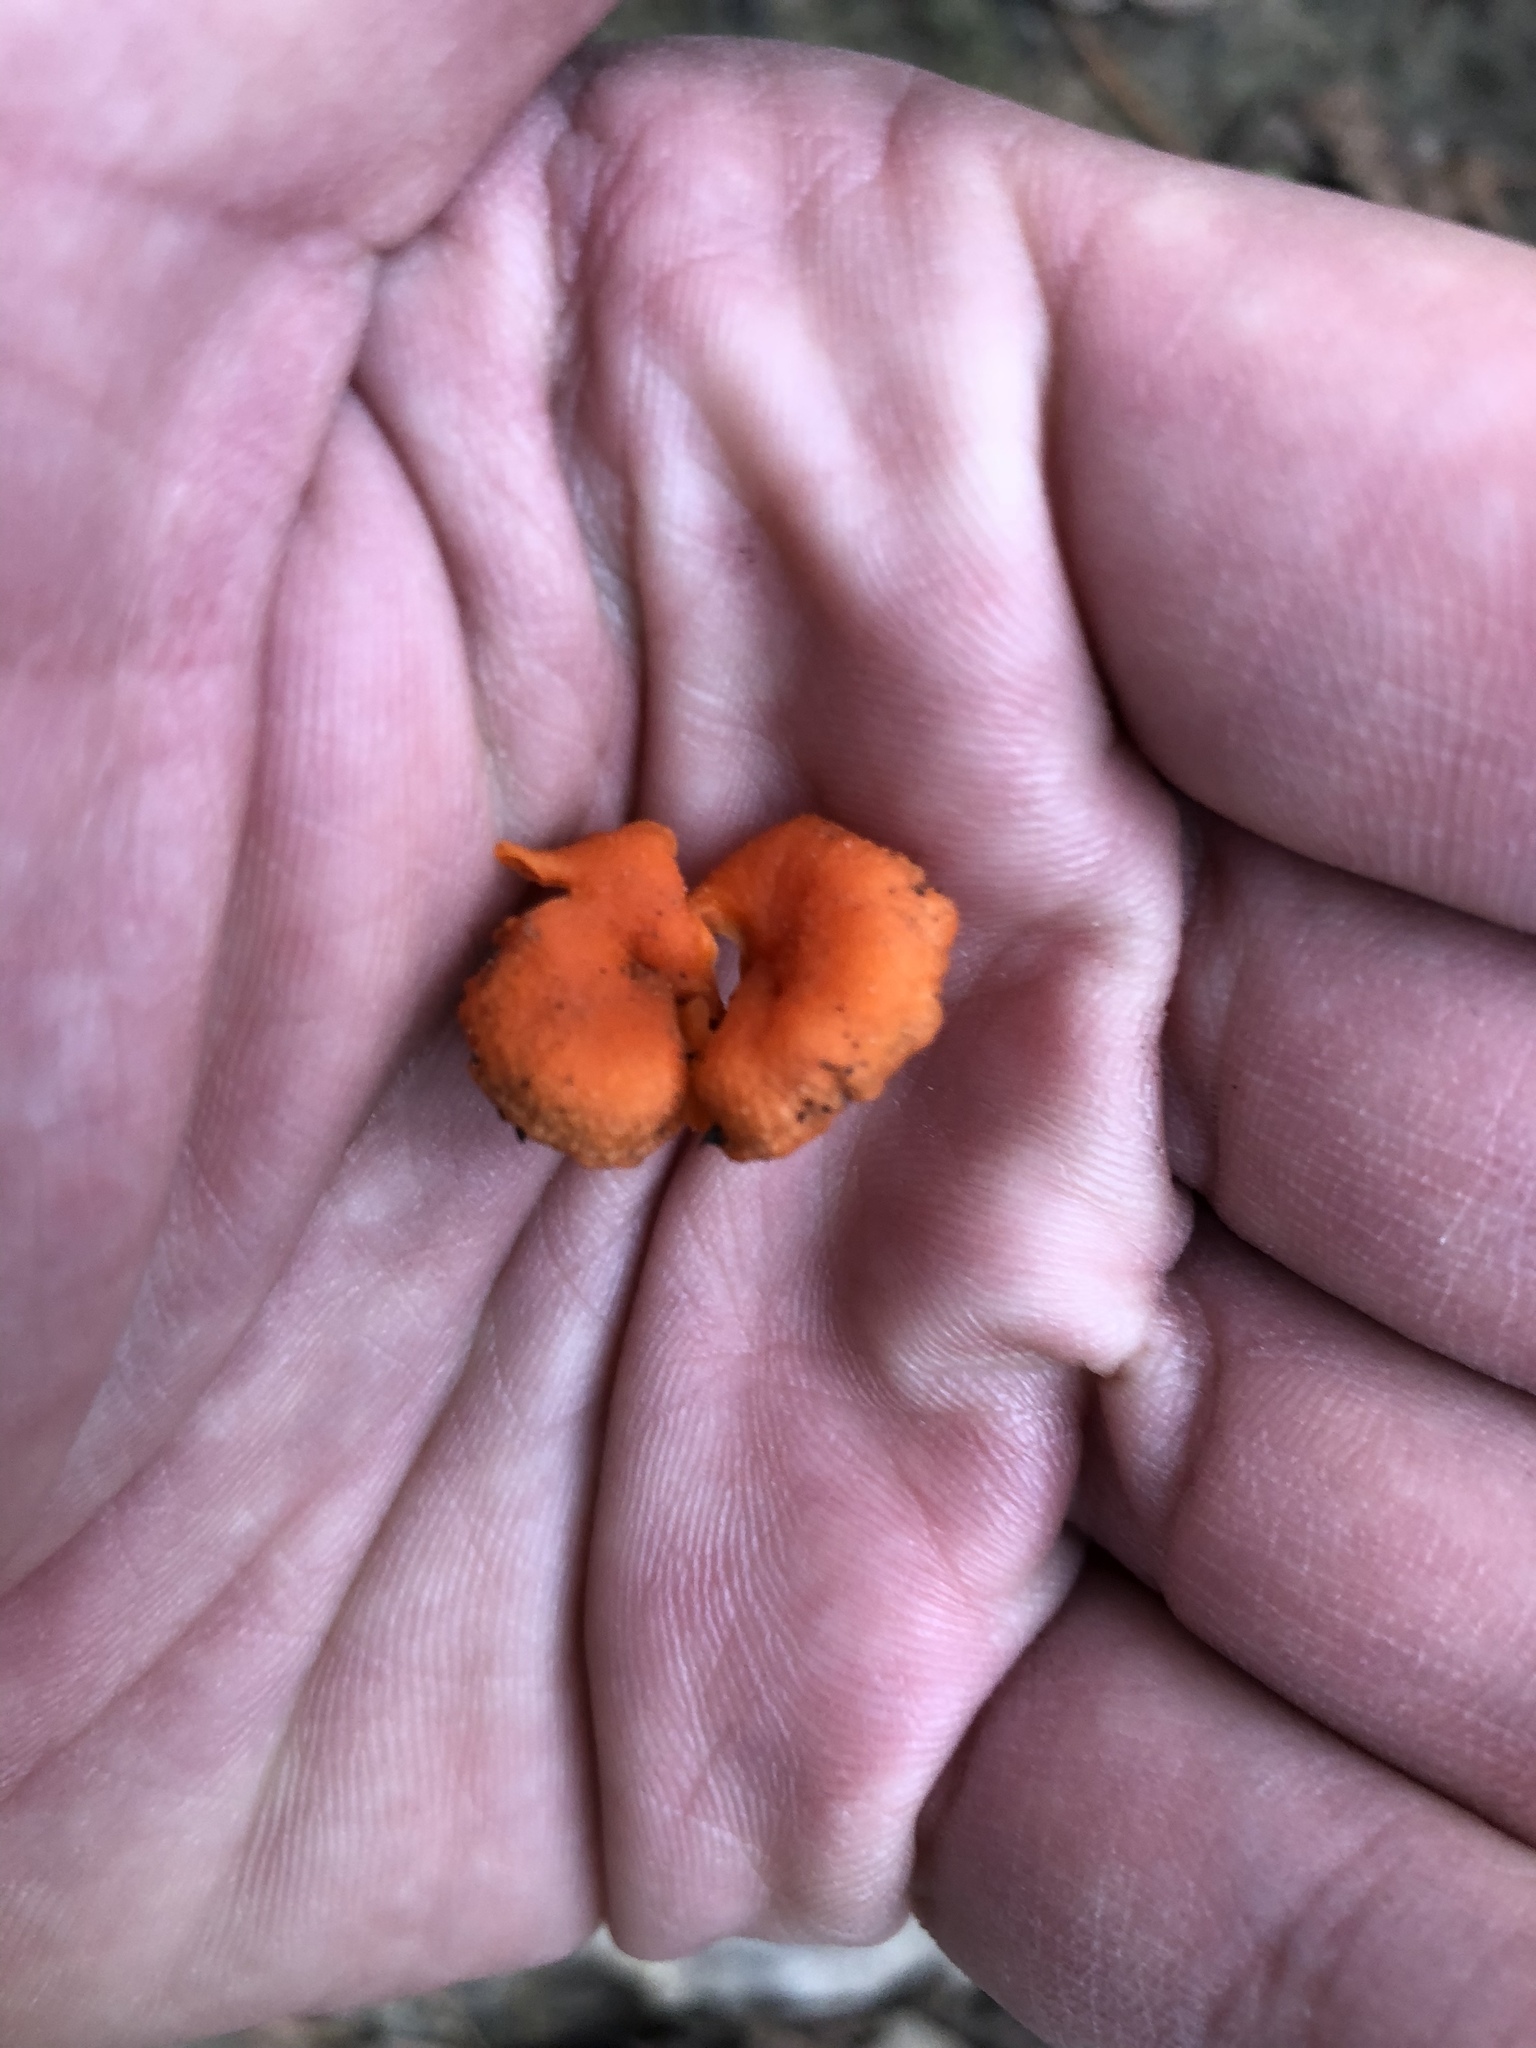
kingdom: Fungi
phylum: Basidiomycota
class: Agaricomycetes
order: Cantharellales
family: Hydnaceae
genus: Cantharellus
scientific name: Cantharellus cinnabarinus
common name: Cinnabar chanterelle
